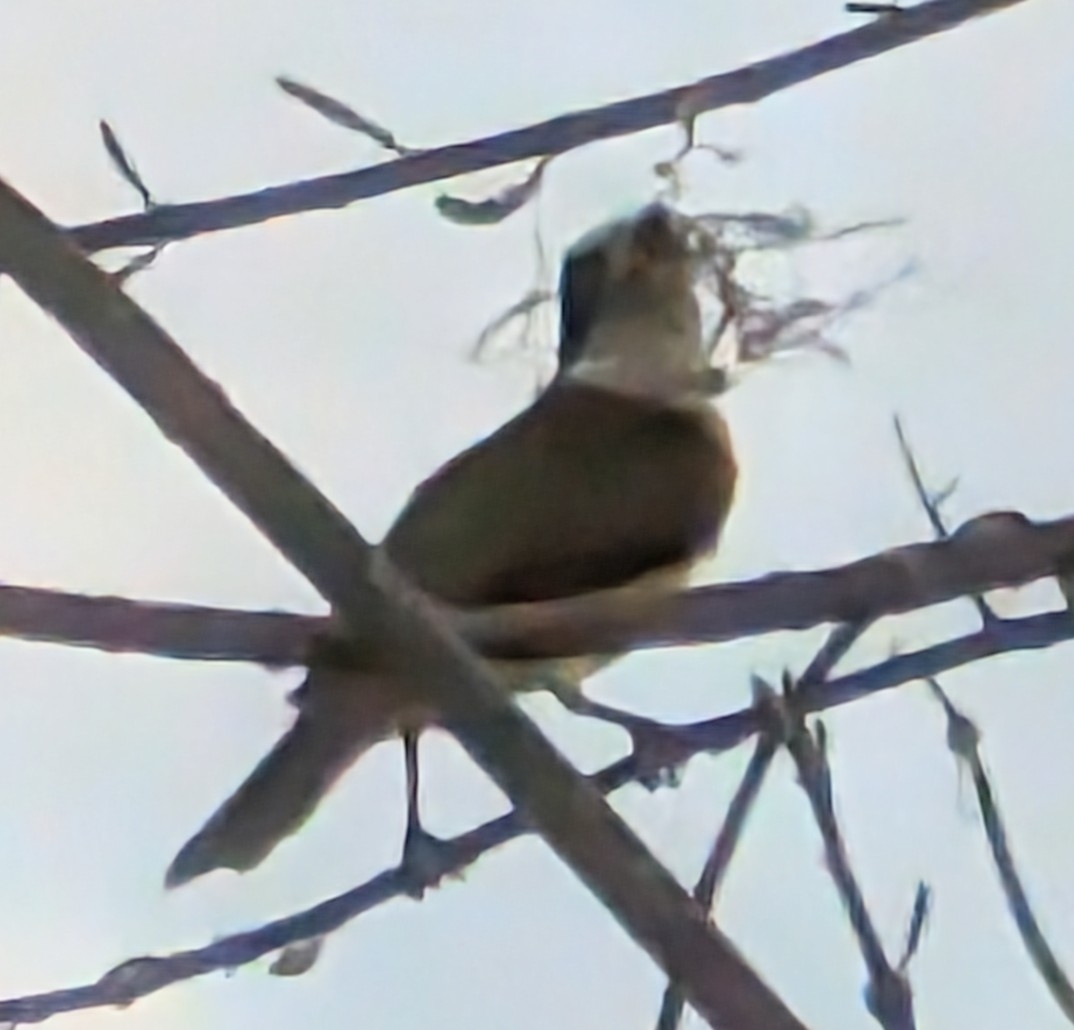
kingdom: Animalia
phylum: Chordata
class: Aves
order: Passeriformes
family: Tyrannidae
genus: Pitangus
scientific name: Pitangus sulphuratus
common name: Great kiskadee
